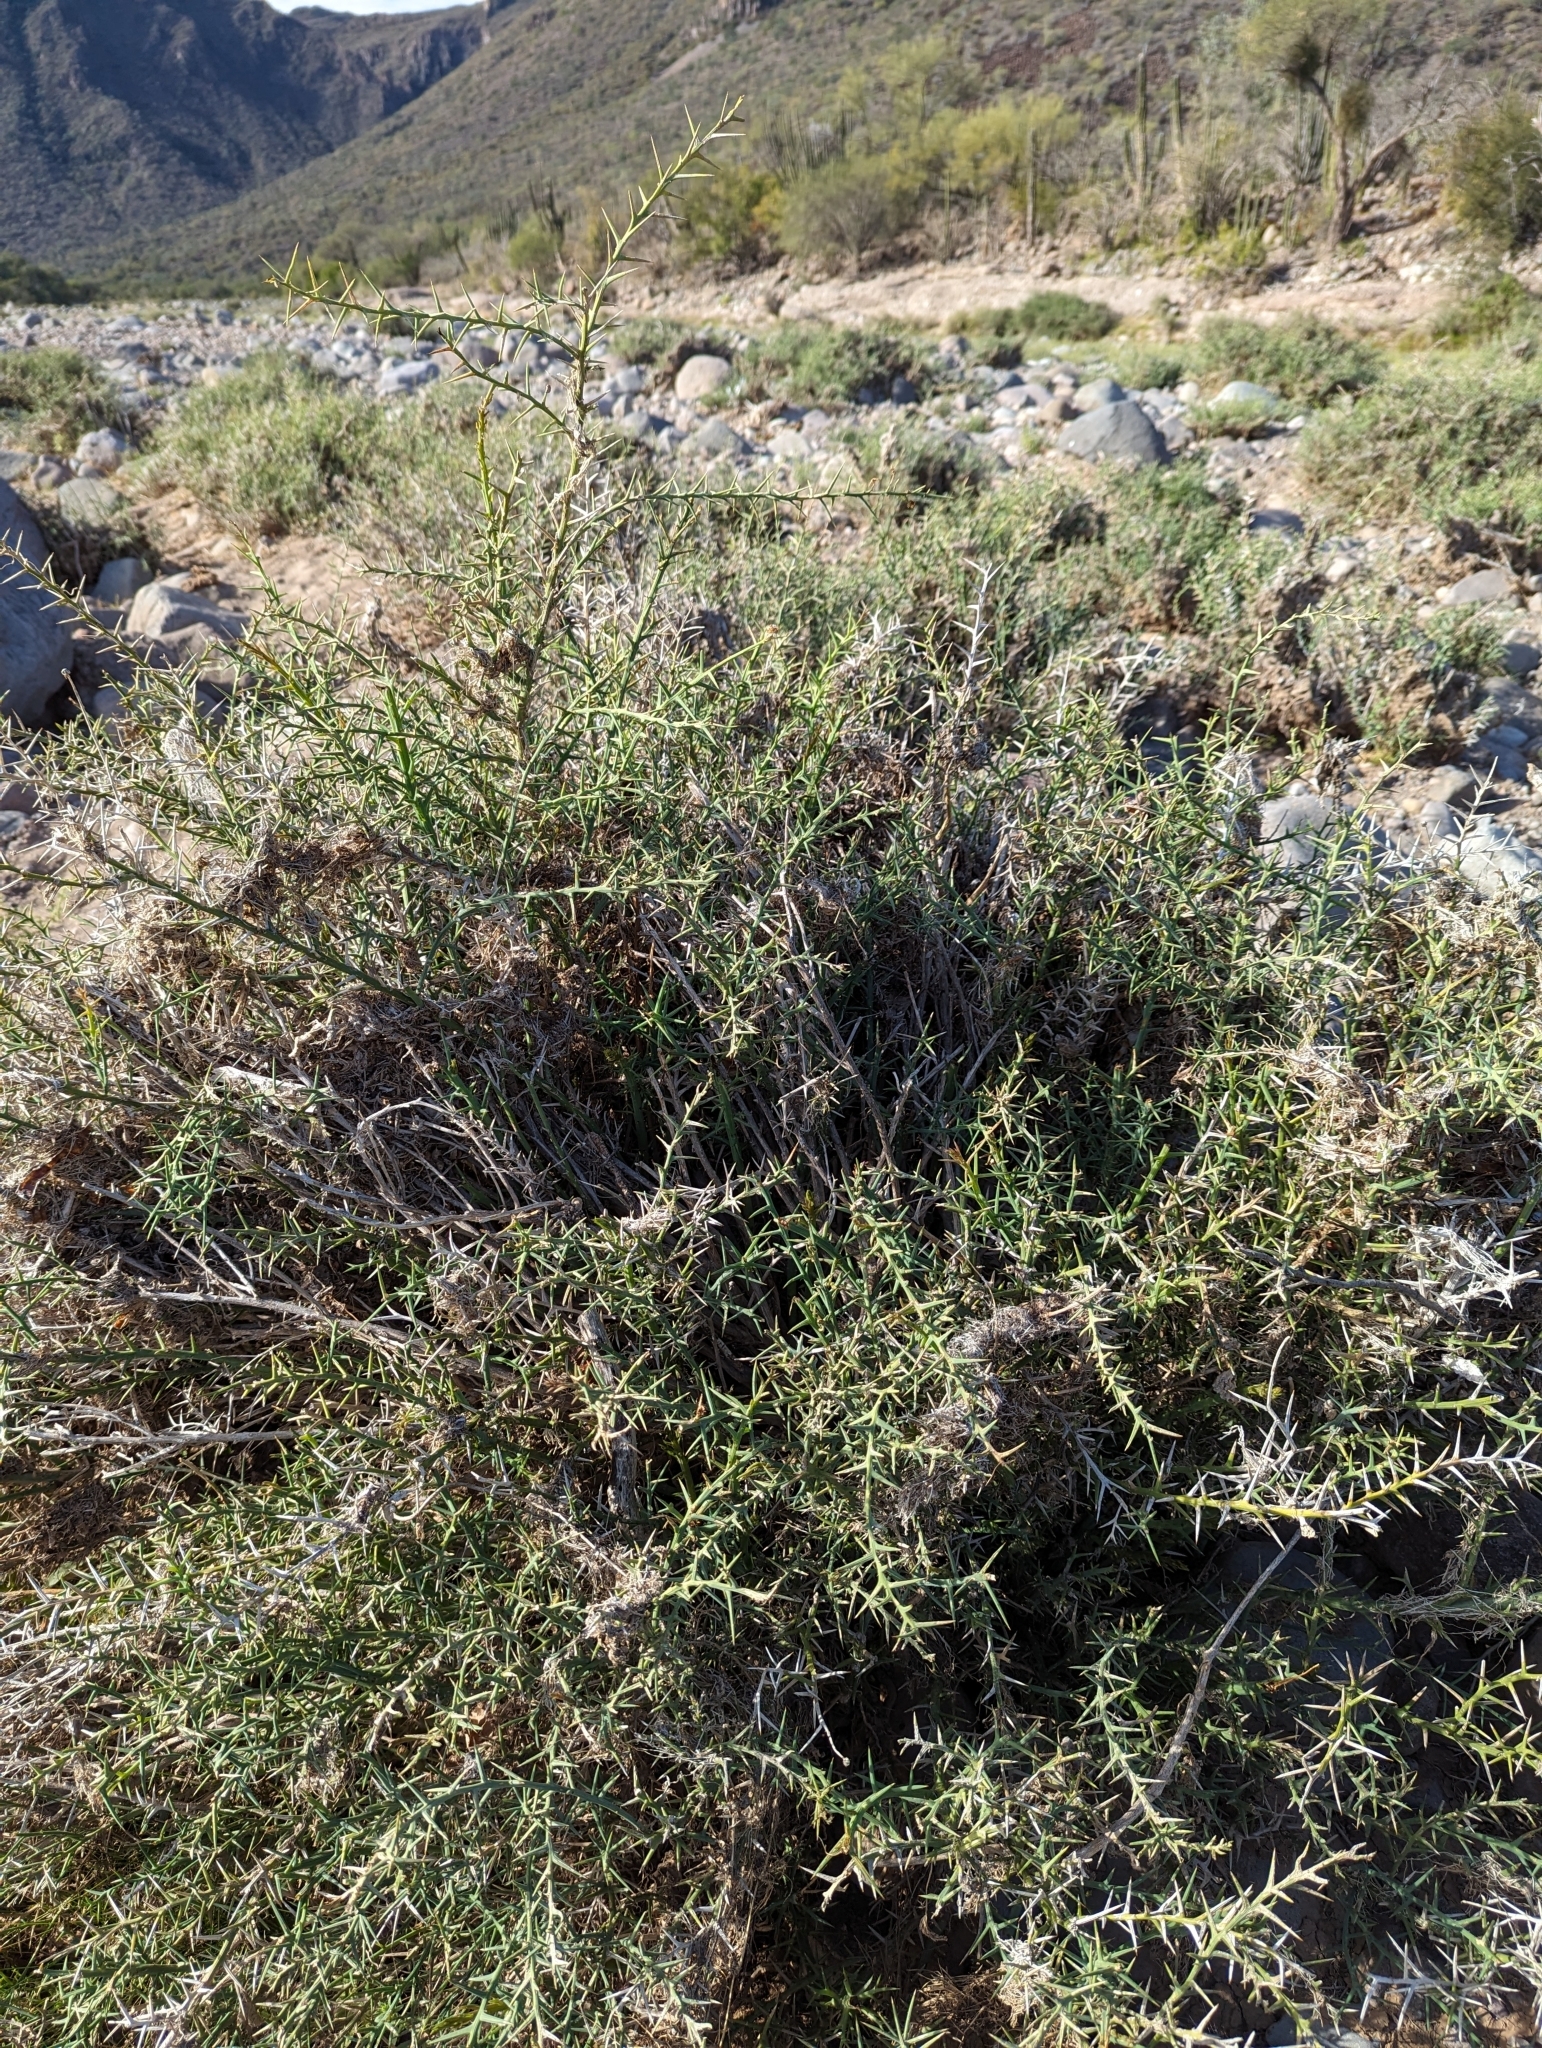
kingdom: Plantae
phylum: Tracheophyta
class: Magnoliopsida
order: Asterales
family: Asteraceae
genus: Chloracantha
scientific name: Chloracantha spinosissima
